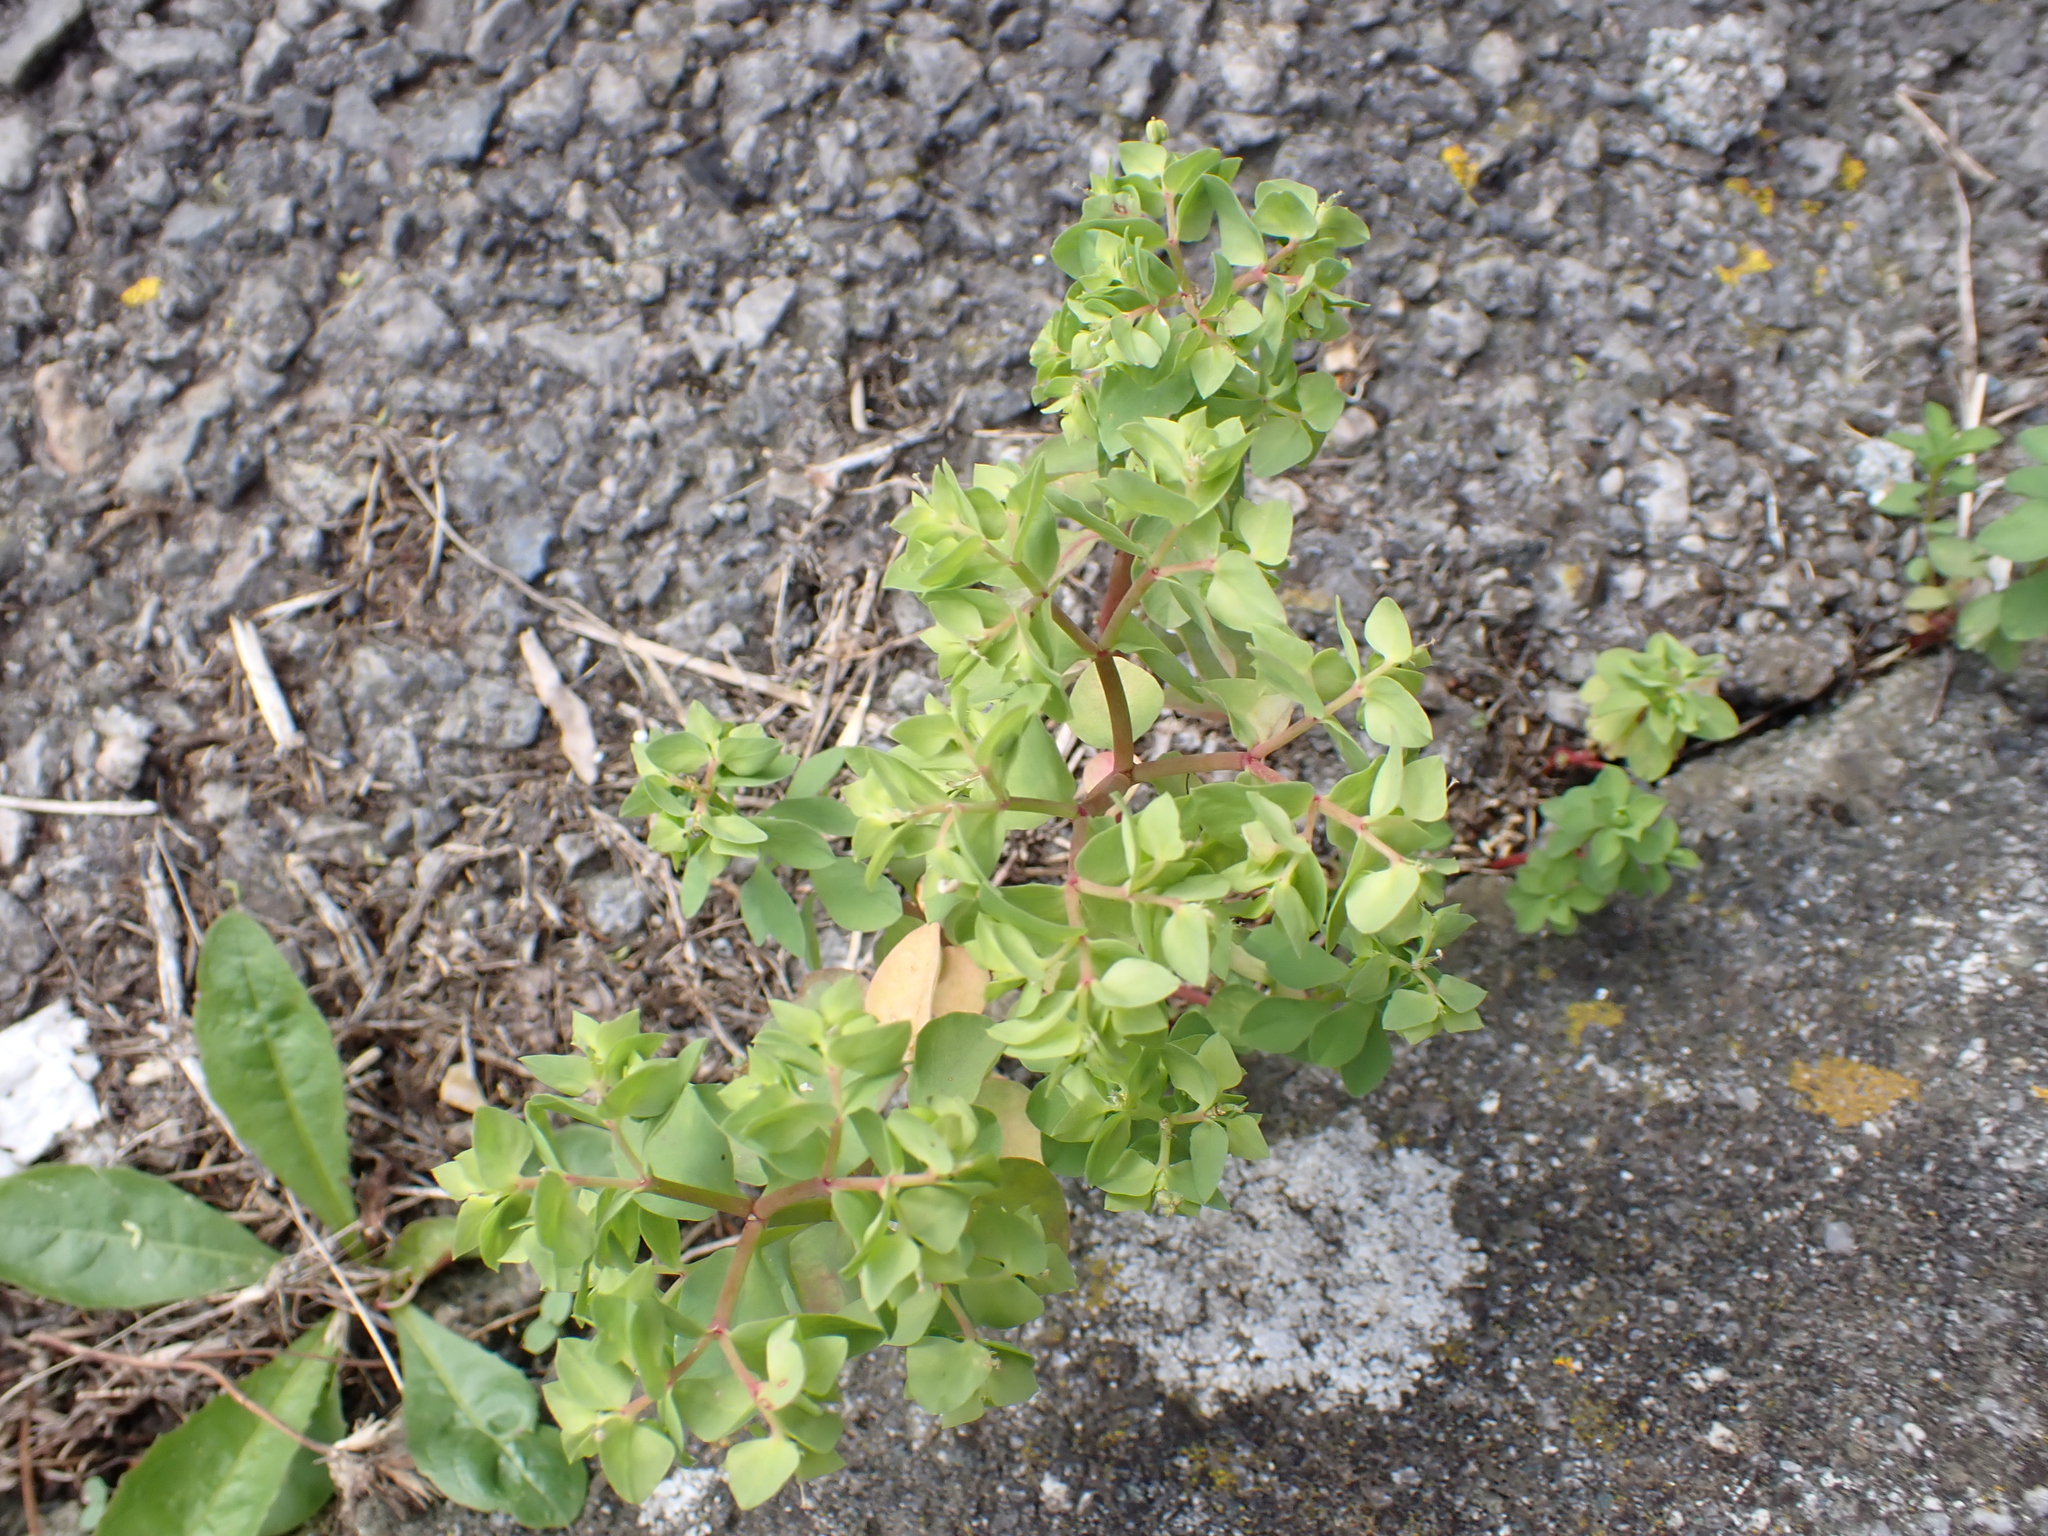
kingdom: Plantae
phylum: Tracheophyta
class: Magnoliopsida
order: Malpighiales
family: Euphorbiaceae
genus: Euphorbia
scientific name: Euphorbia peplus
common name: Petty spurge
